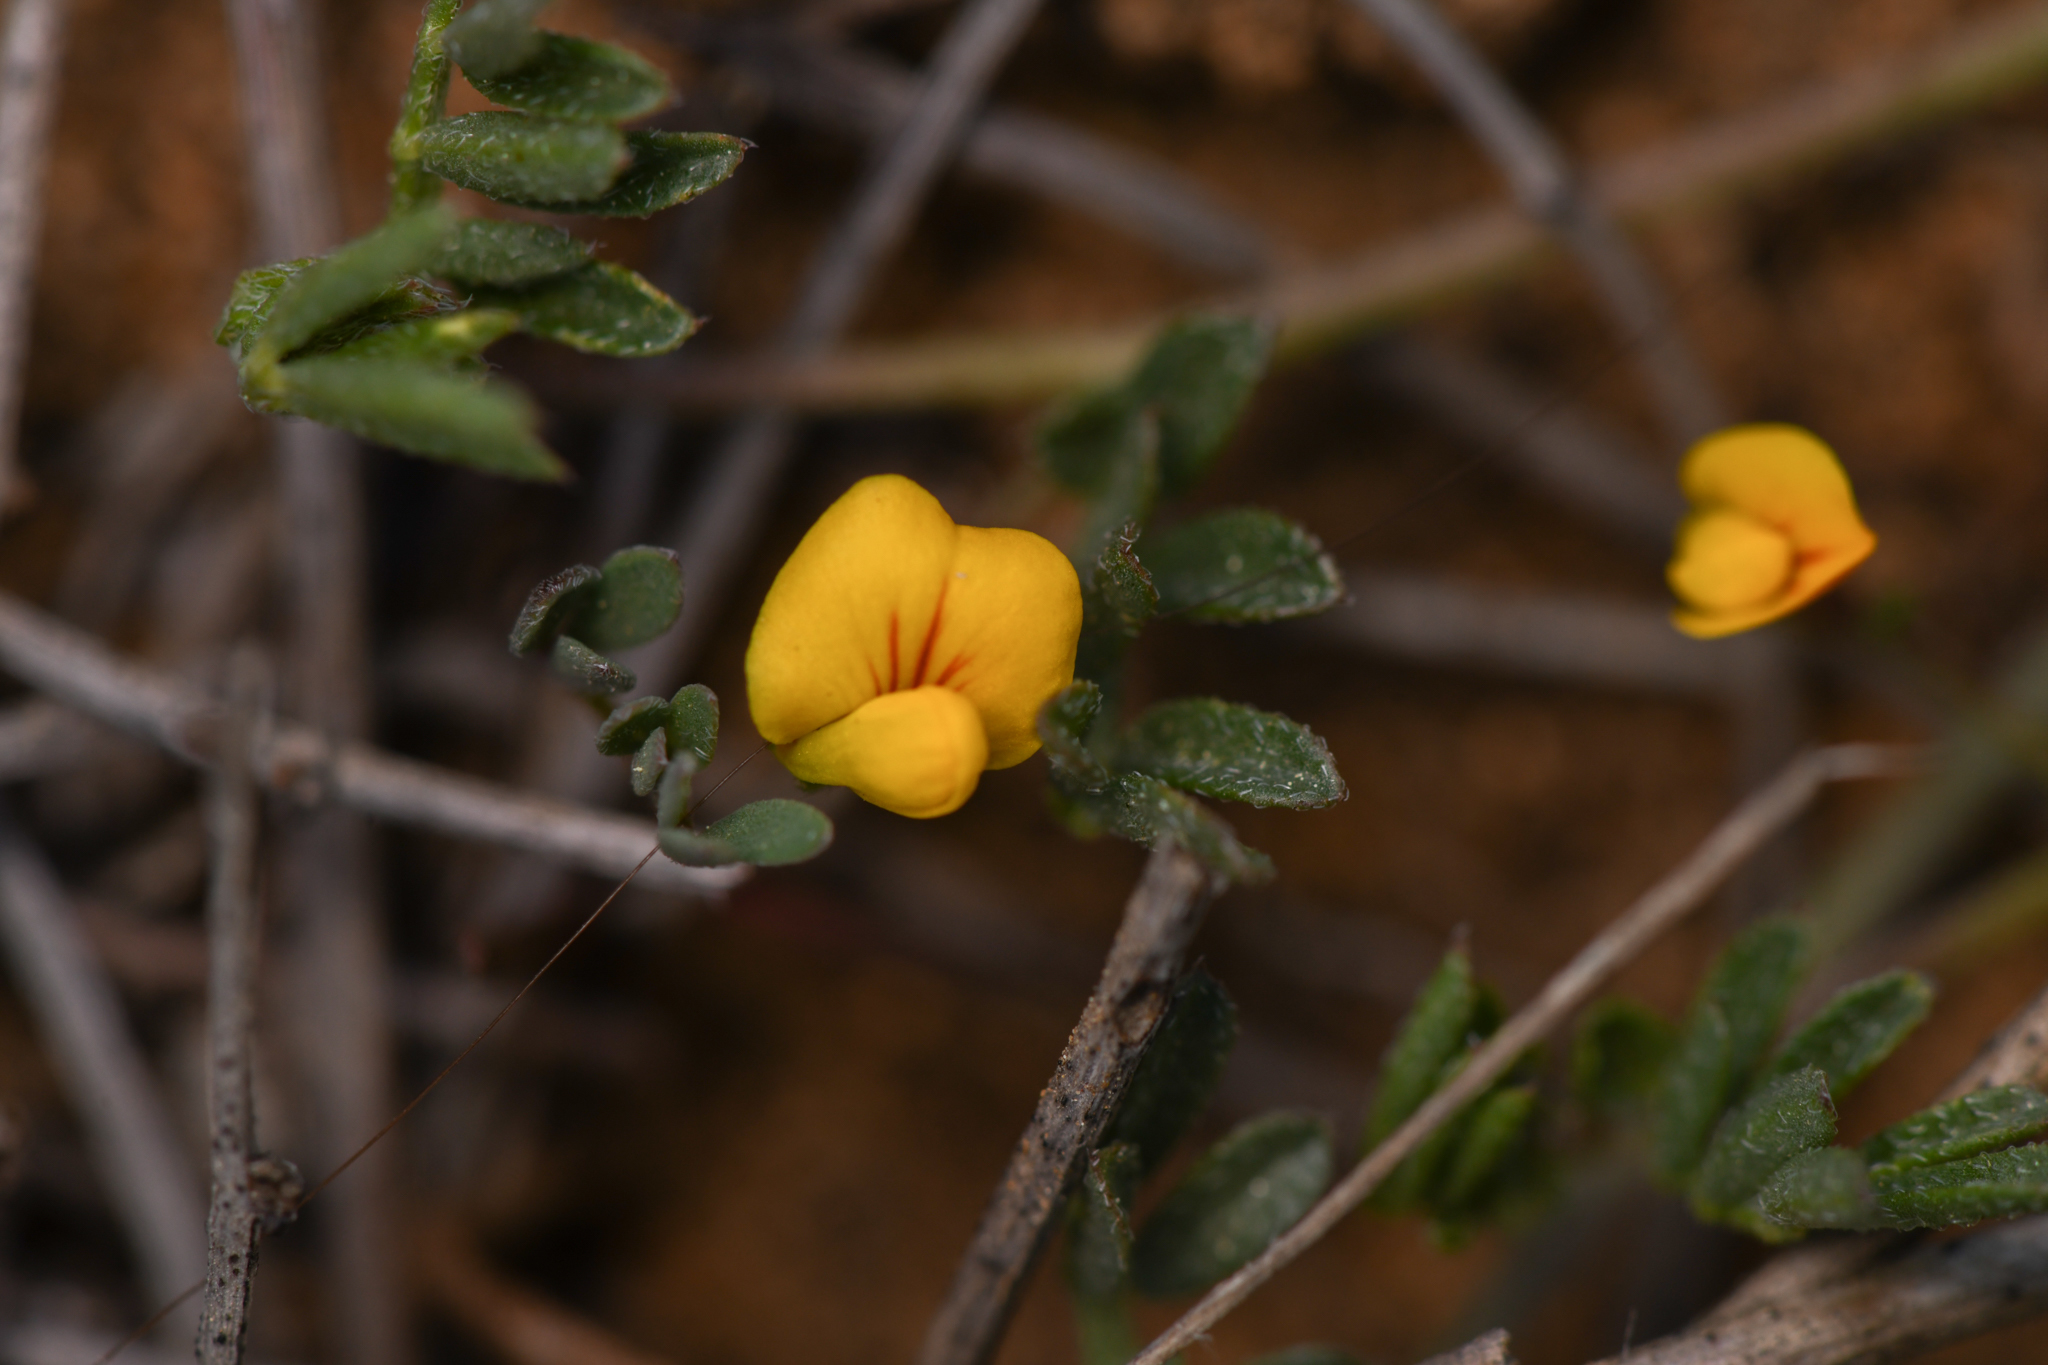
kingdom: Plantae
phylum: Tracheophyta
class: Magnoliopsida
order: Fabales
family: Fabaceae
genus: Acmispon
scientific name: Acmispon strigosus
